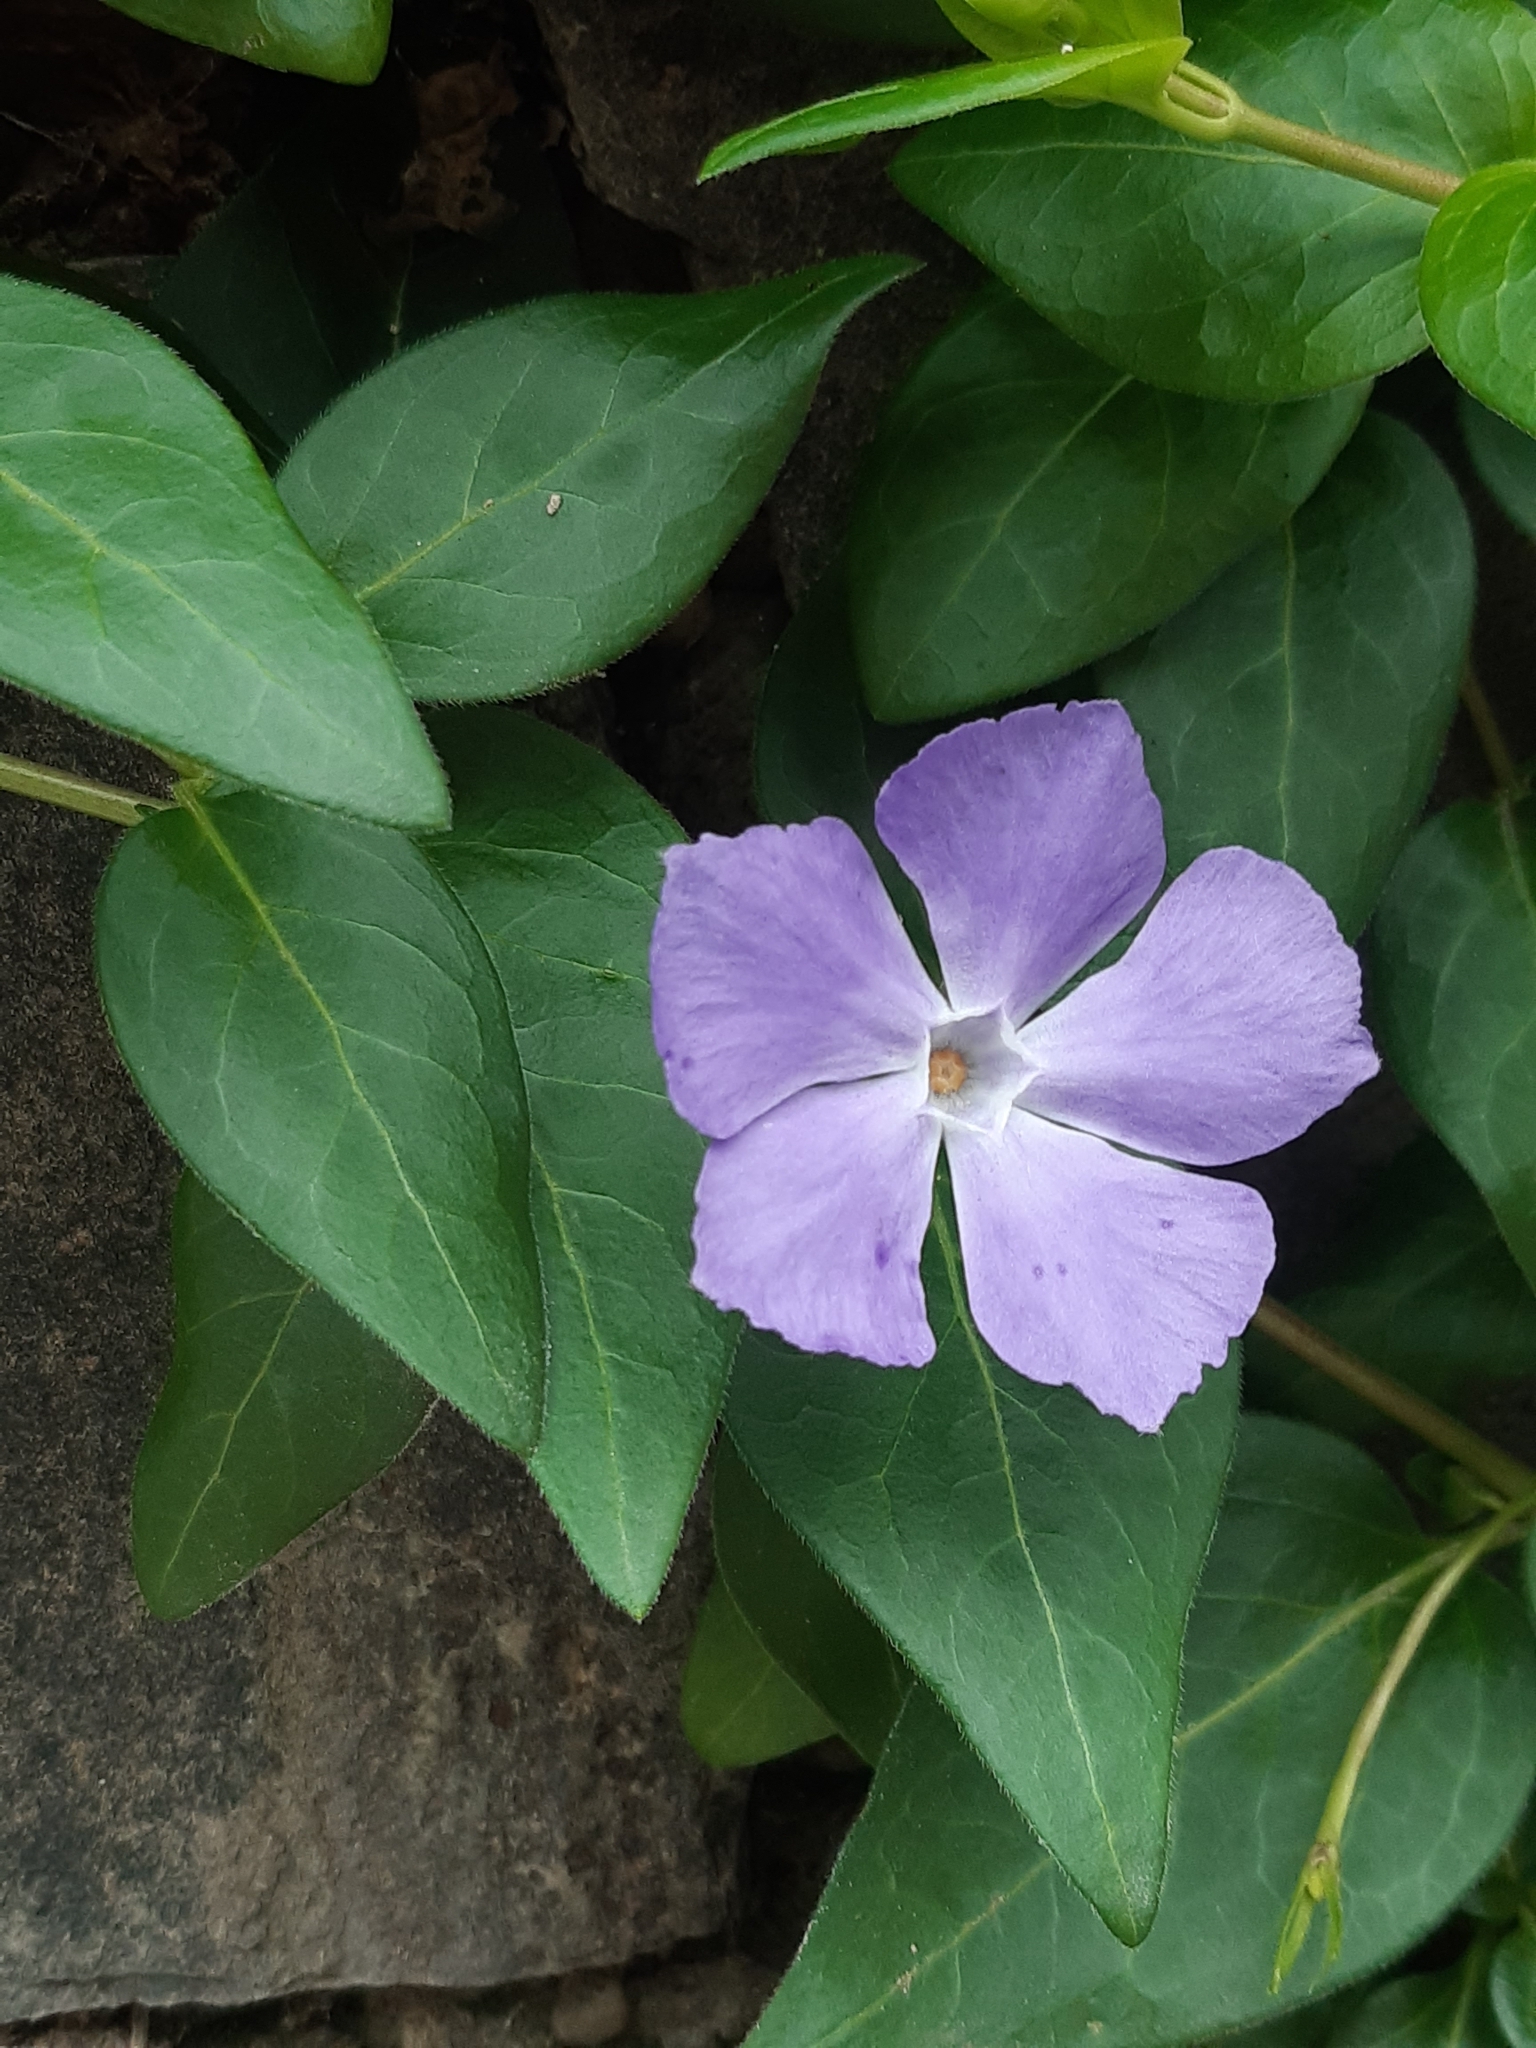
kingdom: Plantae
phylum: Tracheophyta
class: Magnoliopsida
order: Gentianales
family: Apocynaceae
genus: Vinca
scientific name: Vinca major
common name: Greater periwinkle
